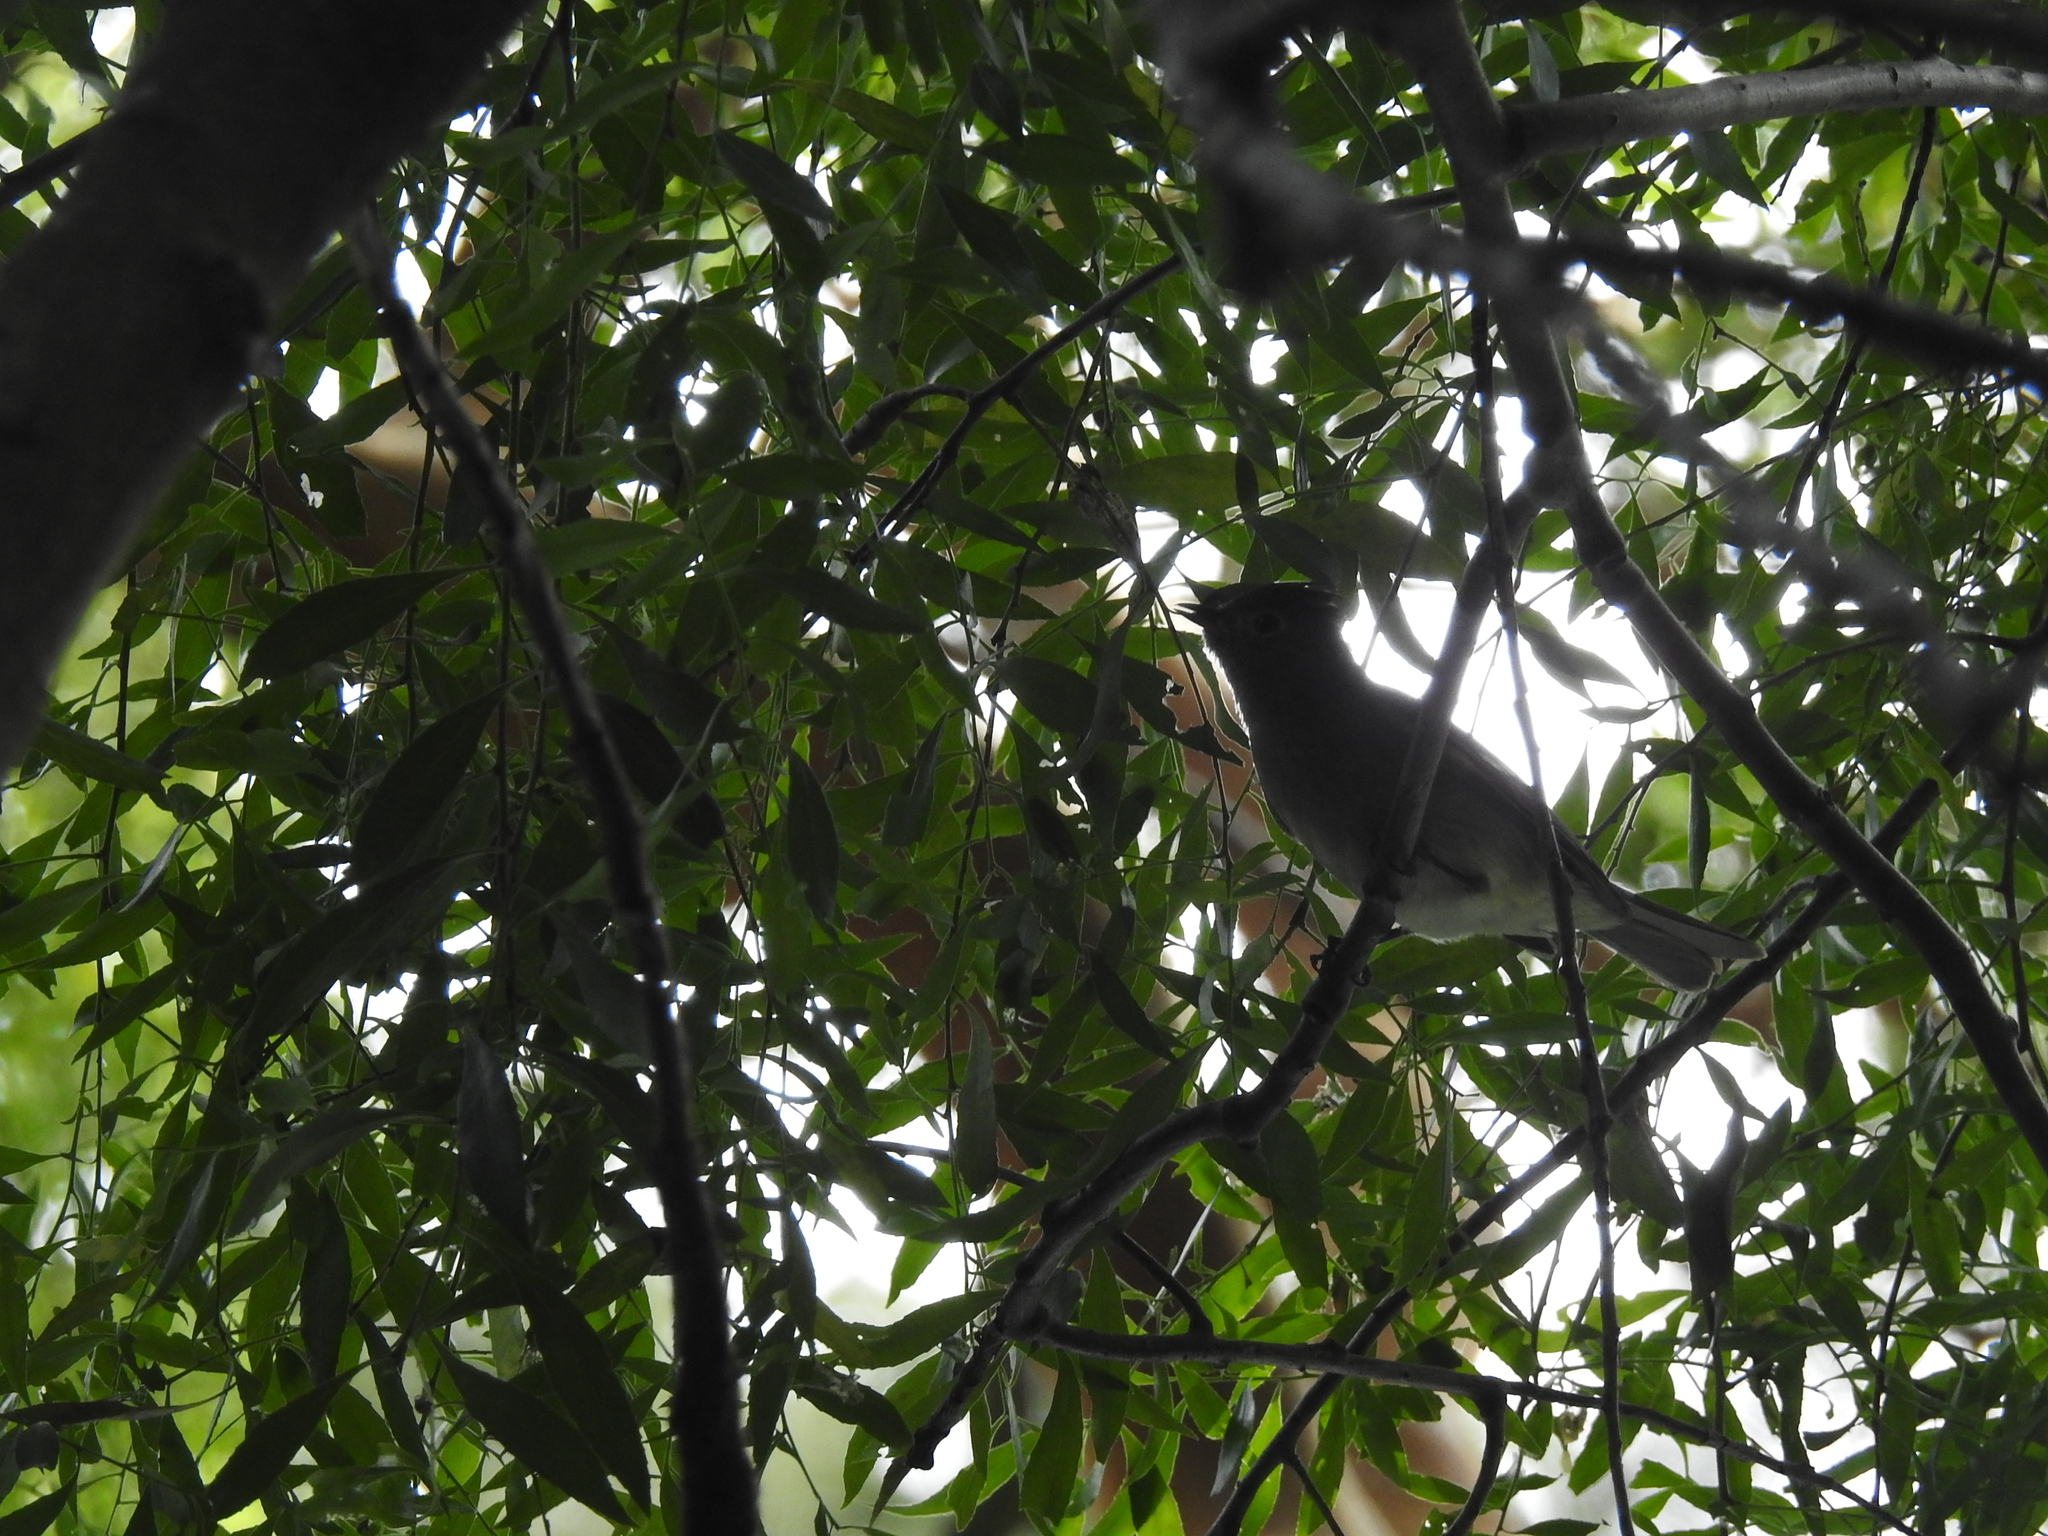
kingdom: Animalia
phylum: Chordata
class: Aves
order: Passeriformes
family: Tyrannidae
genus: Elaenia
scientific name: Elaenia albiceps
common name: White-crested elaenia
